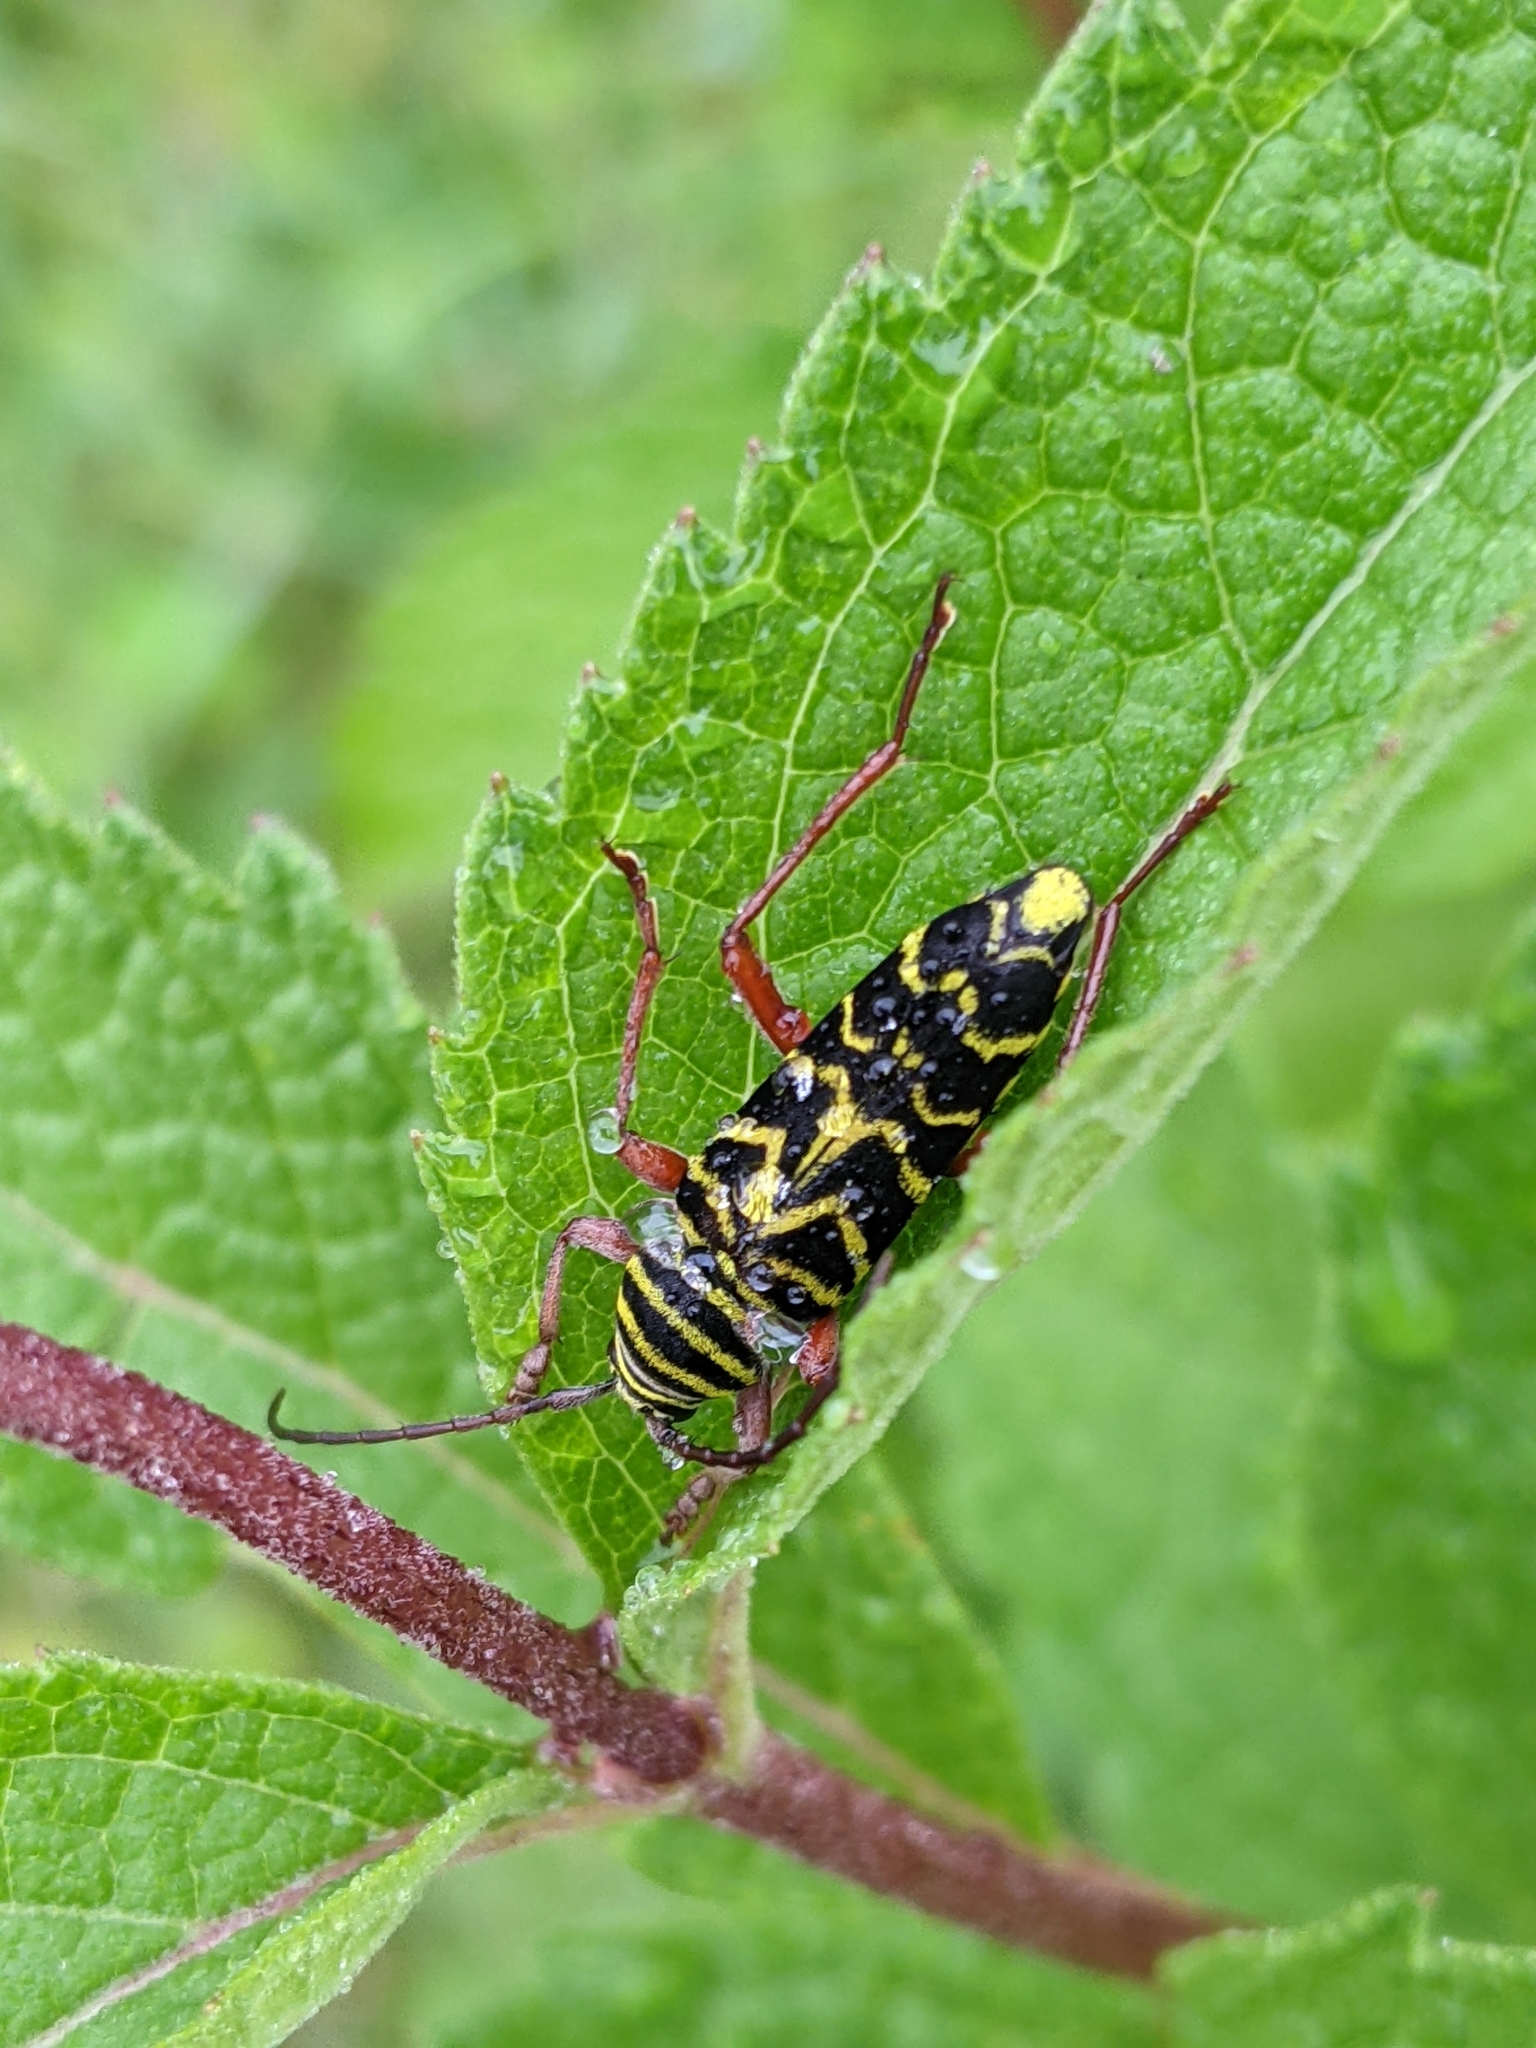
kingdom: Animalia
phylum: Arthropoda
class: Insecta
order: Coleoptera
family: Cerambycidae
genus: Megacyllene
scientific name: Megacyllene robiniae
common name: Locust borer
